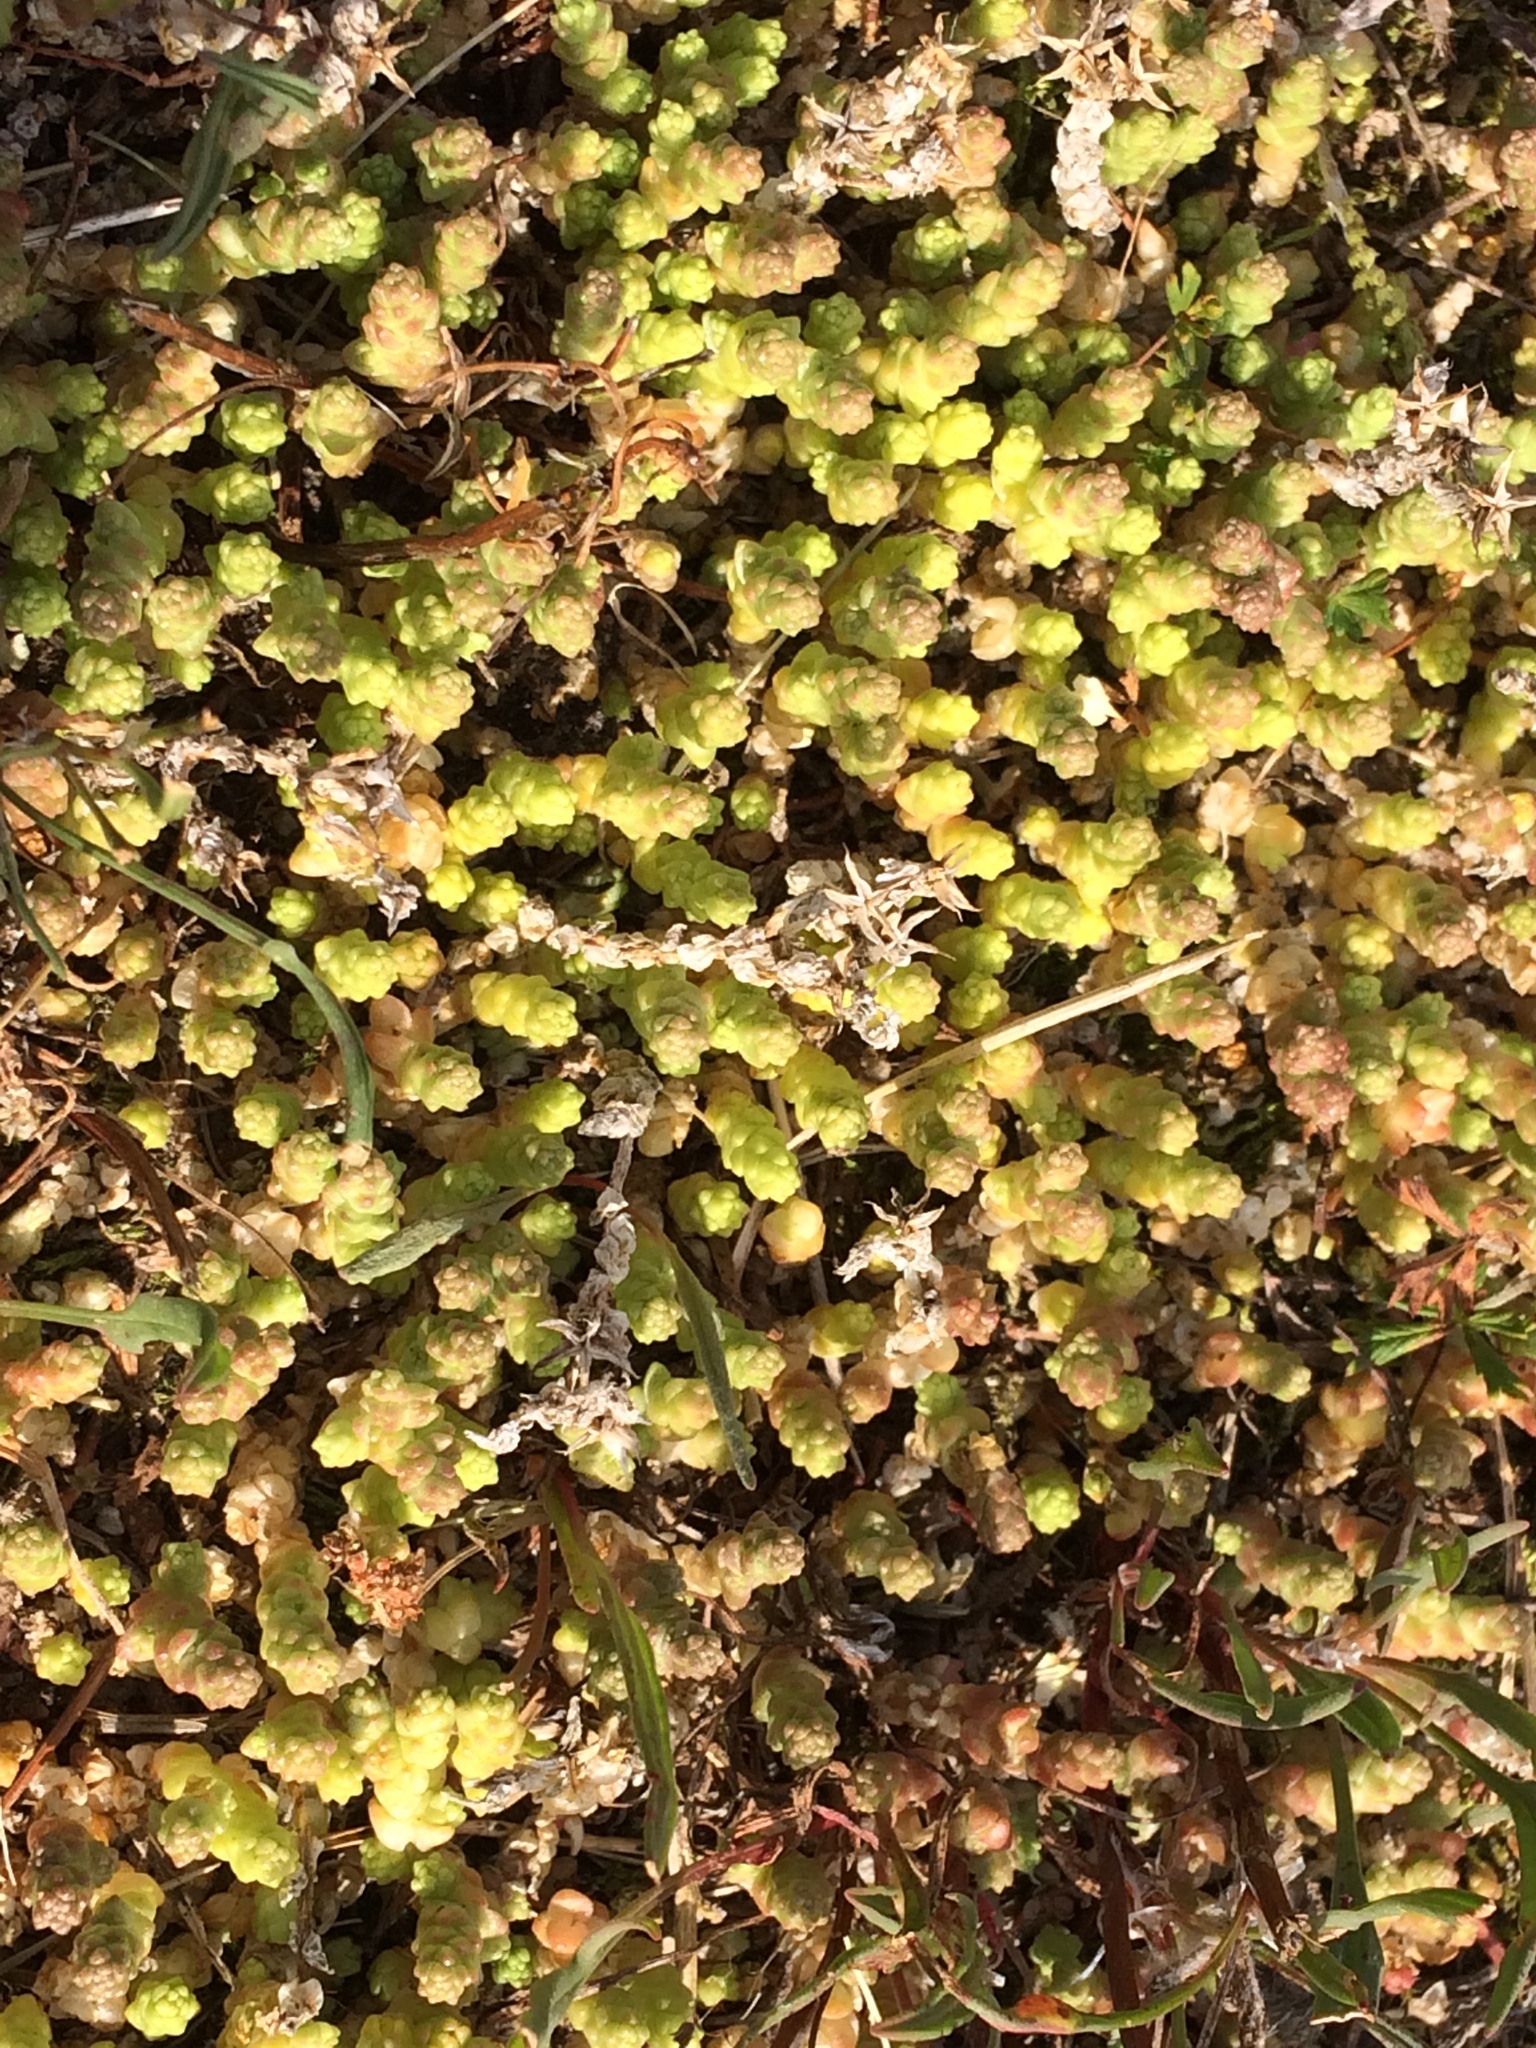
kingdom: Plantae
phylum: Tracheophyta
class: Magnoliopsida
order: Saxifragales
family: Crassulaceae
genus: Sedum
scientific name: Sedum acre
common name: Biting stonecrop
